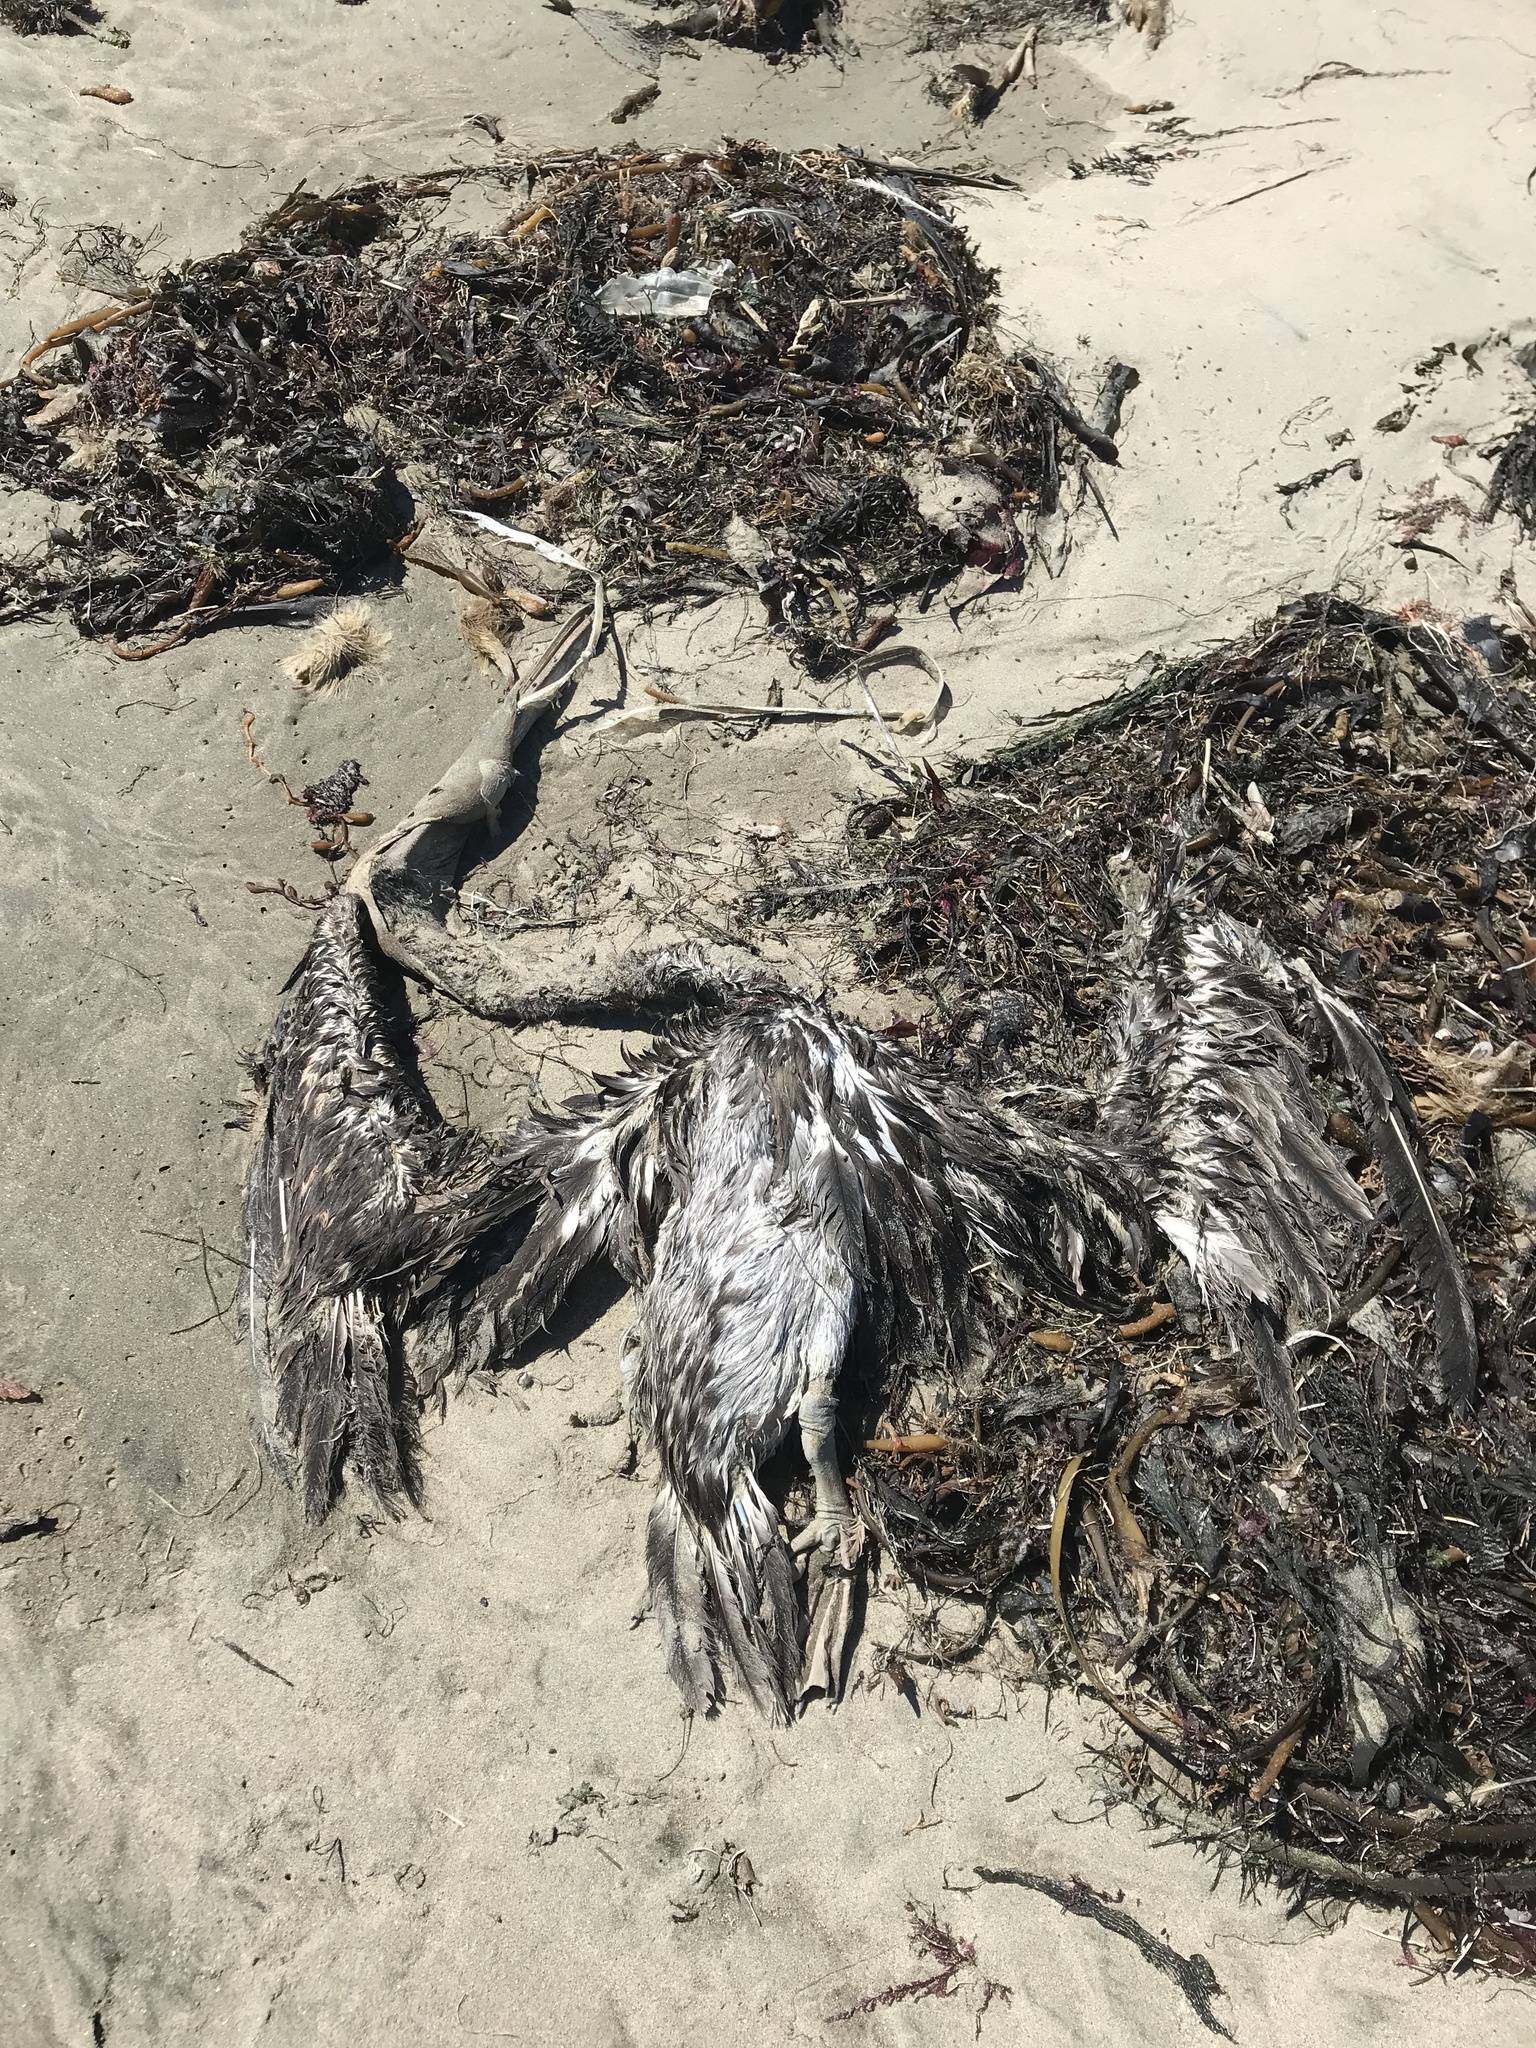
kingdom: Animalia
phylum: Chordata
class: Aves
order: Pelecaniformes
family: Pelecanidae
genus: Pelecanus
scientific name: Pelecanus occidentalis
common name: Brown pelican
